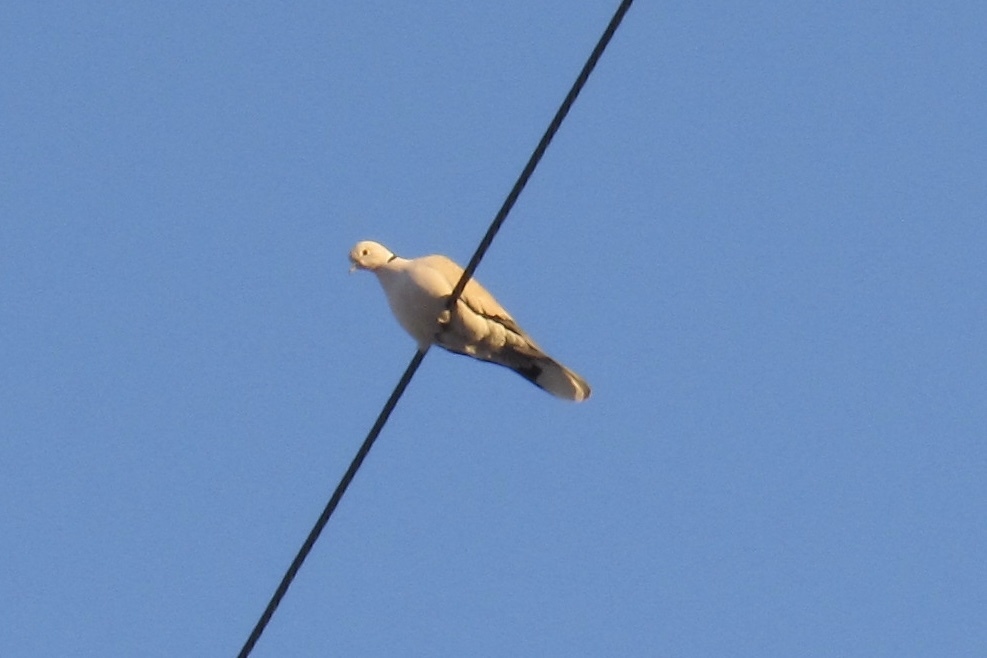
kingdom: Animalia
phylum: Chordata
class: Aves
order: Columbiformes
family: Columbidae
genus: Streptopelia
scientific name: Streptopelia decaocto
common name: Eurasian collared dove
